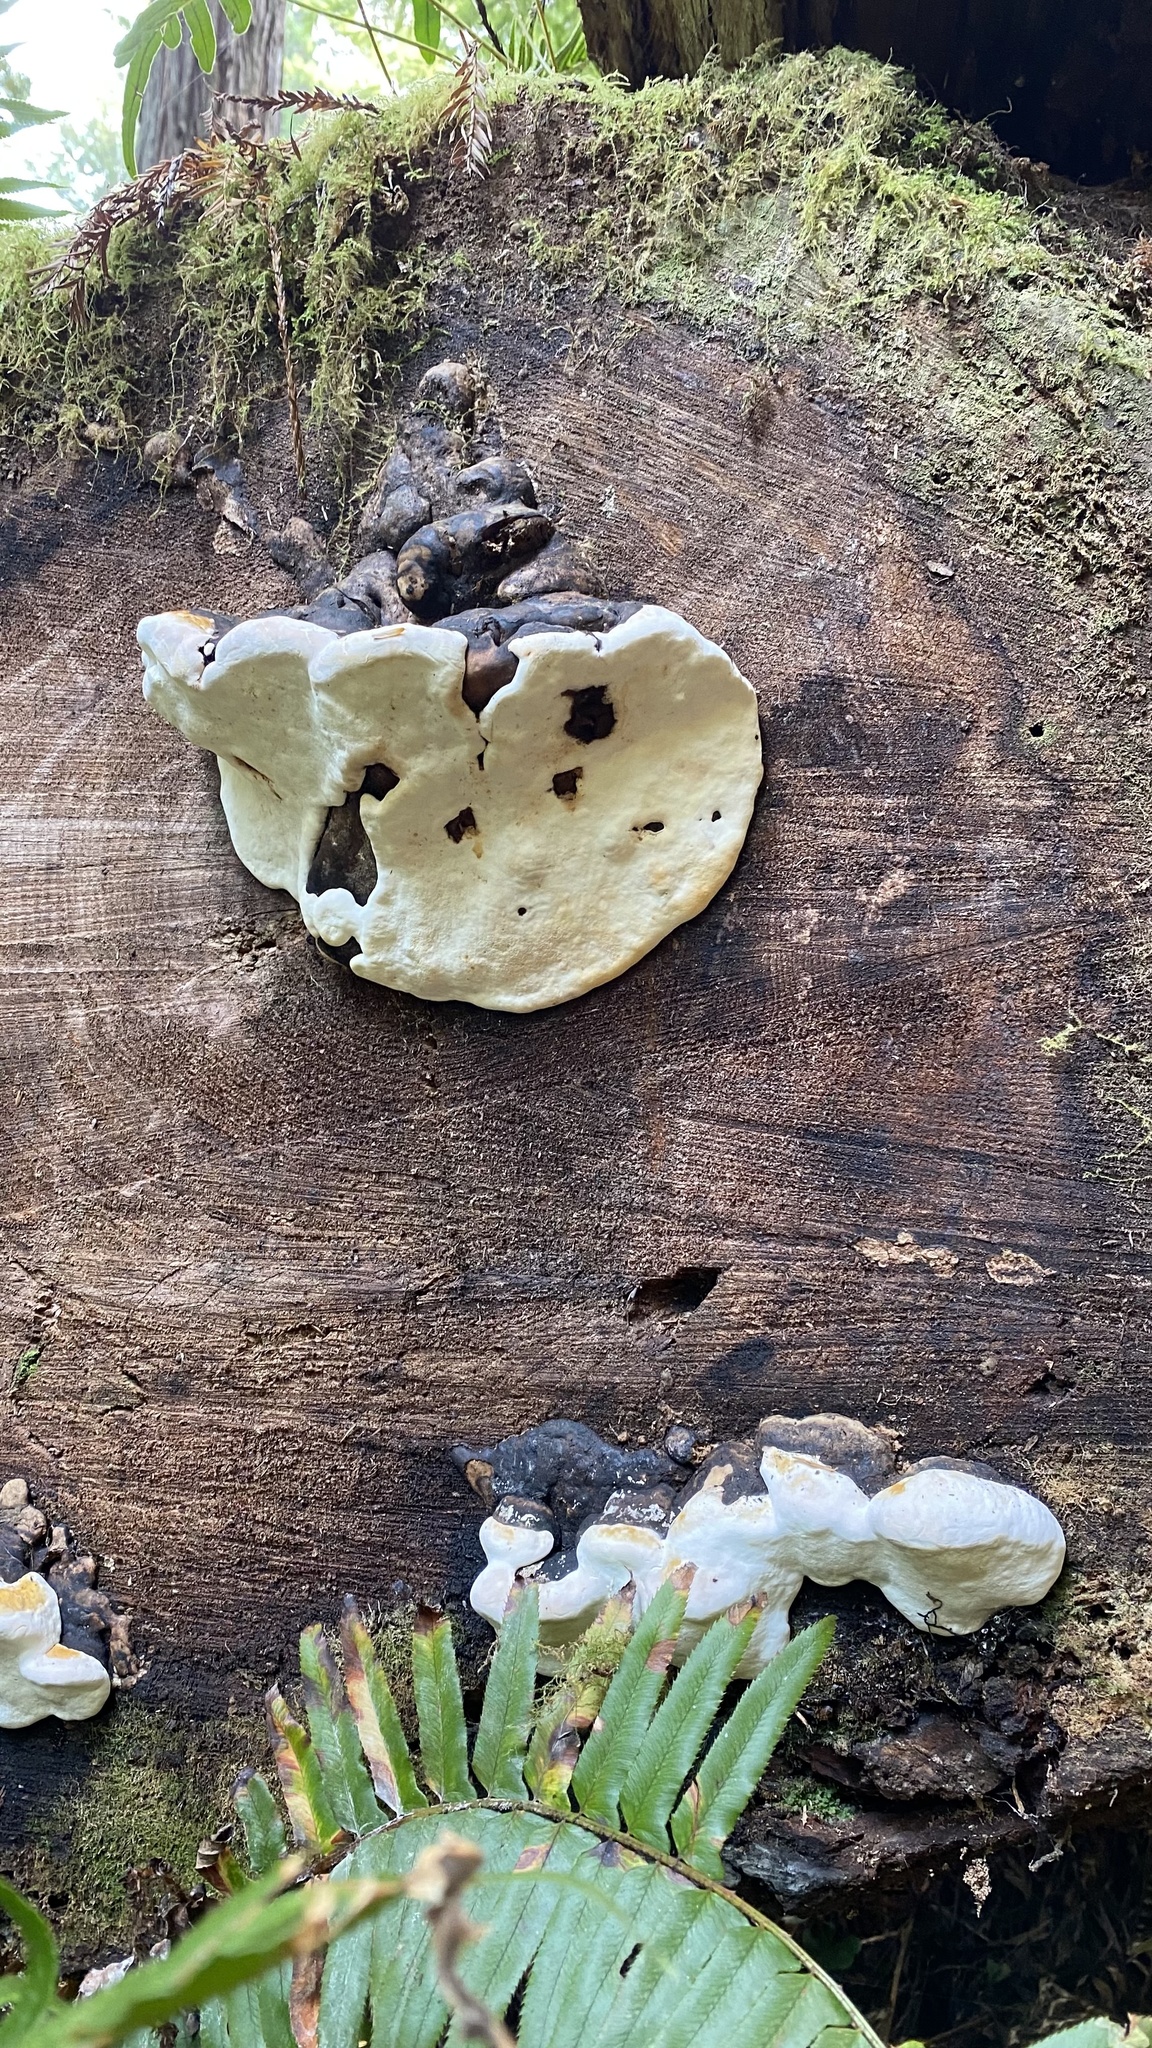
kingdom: Fungi
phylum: Basidiomycota
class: Agaricomycetes
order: Polyporales
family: Fomitopsidaceae
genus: Fomitopsis
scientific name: Fomitopsis ochracea
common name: American brown fomitopsis
